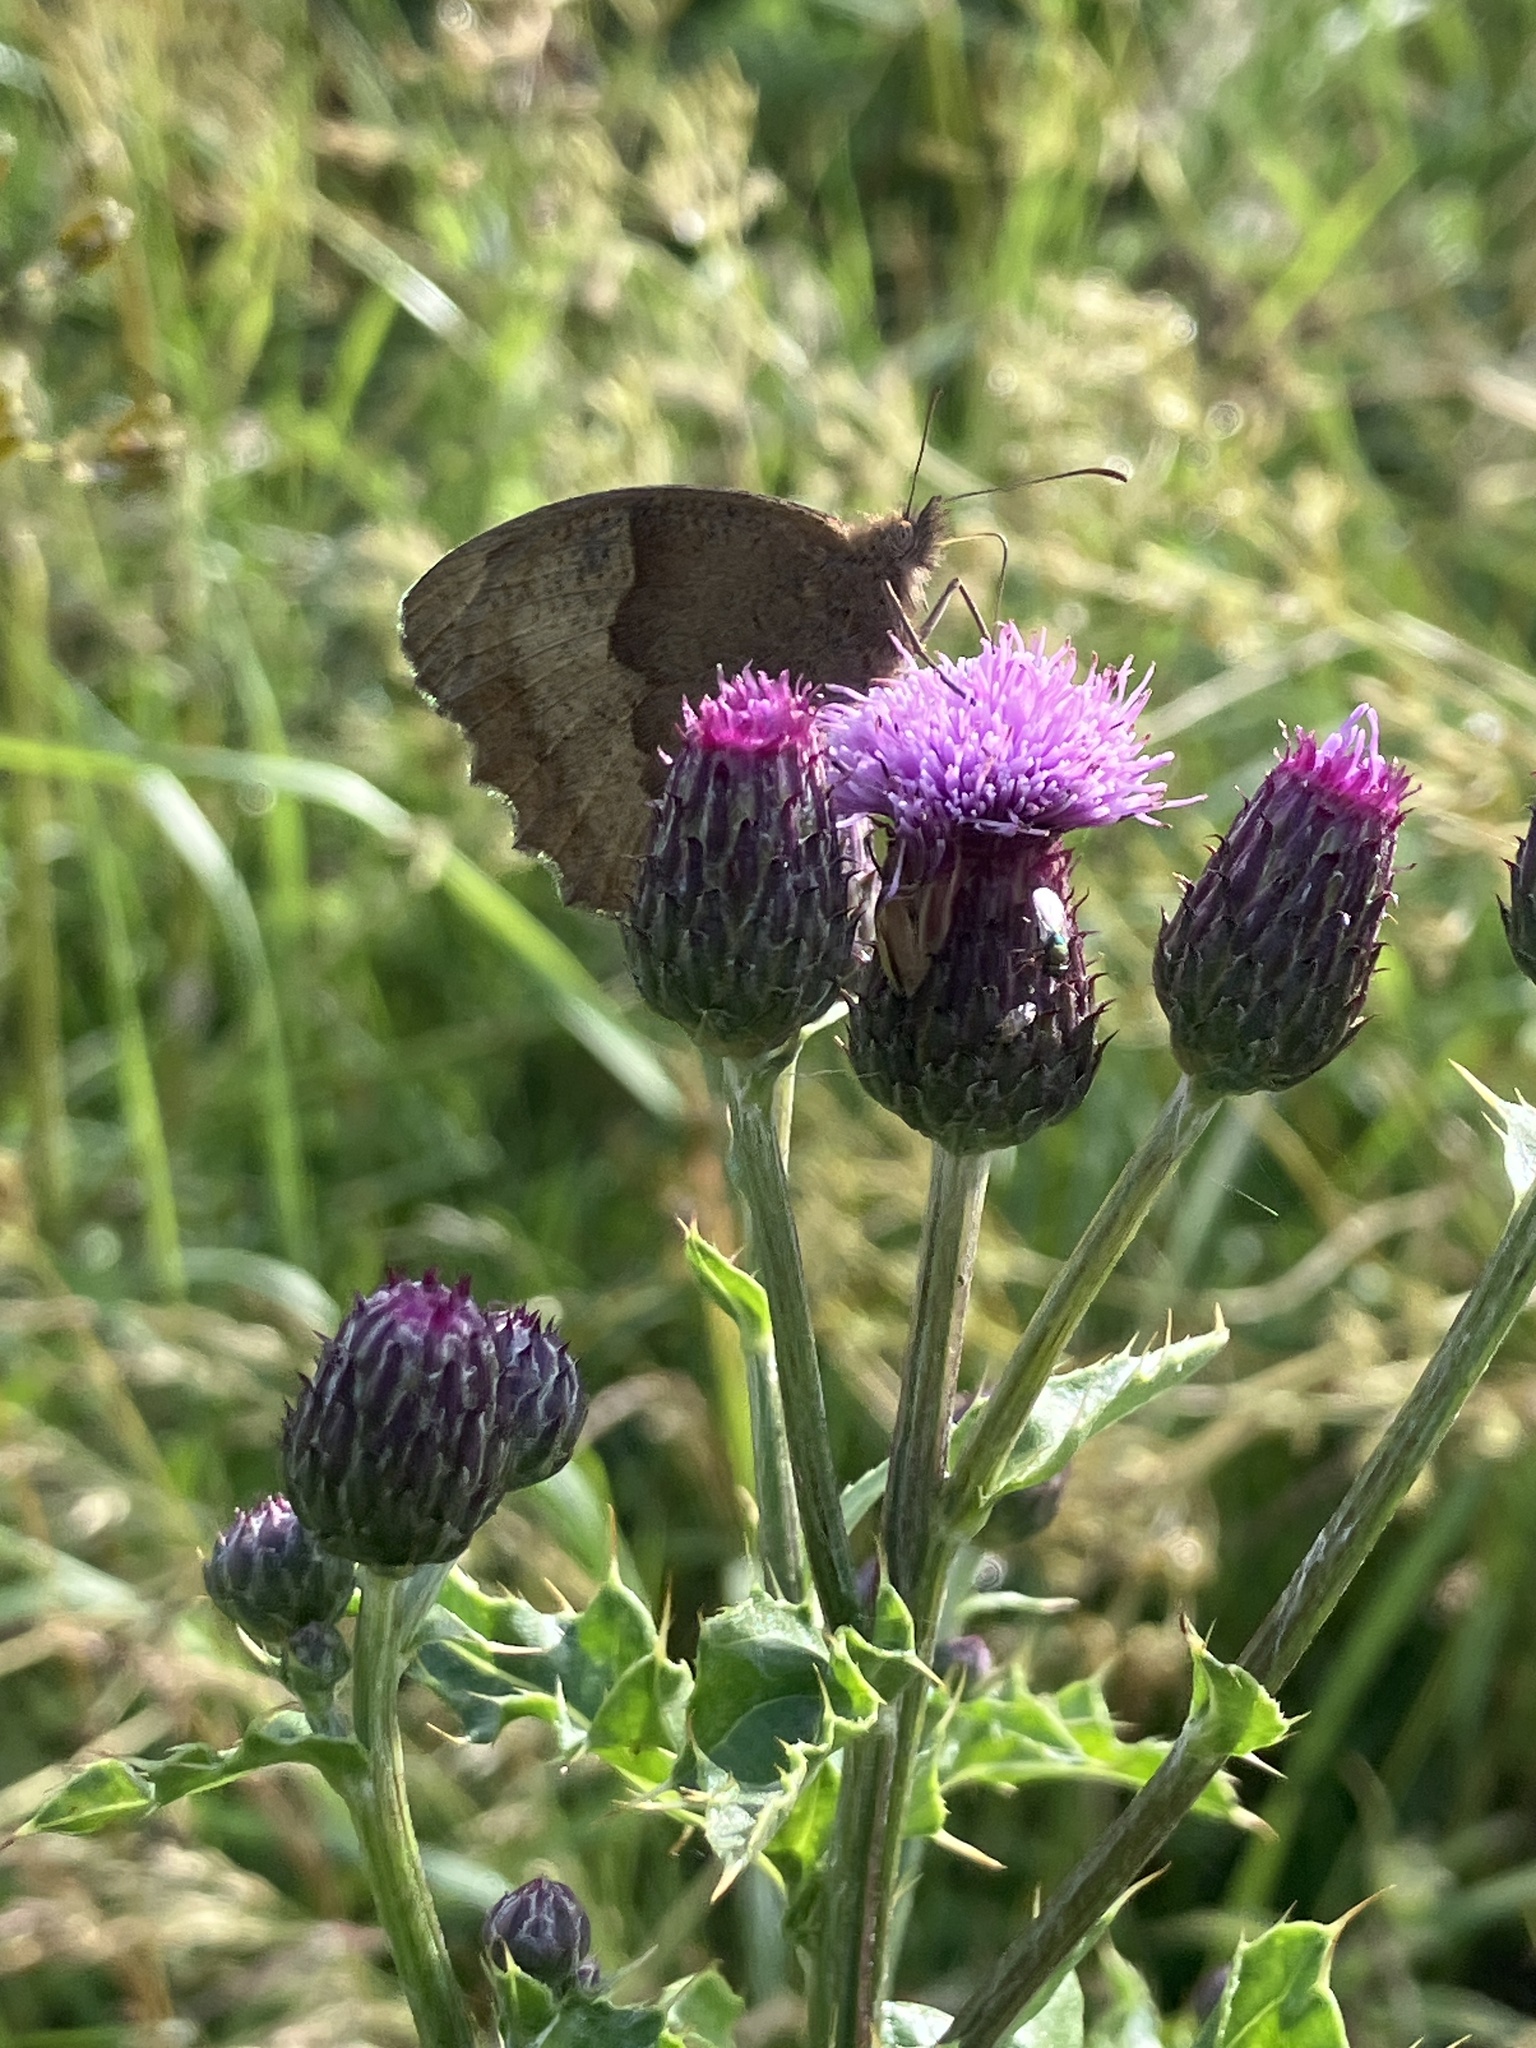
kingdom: Animalia
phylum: Arthropoda
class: Insecta
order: Lepidoptera
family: Nymphalidae
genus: Maniola
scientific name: Maniola jurtina
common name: Meadow brown
